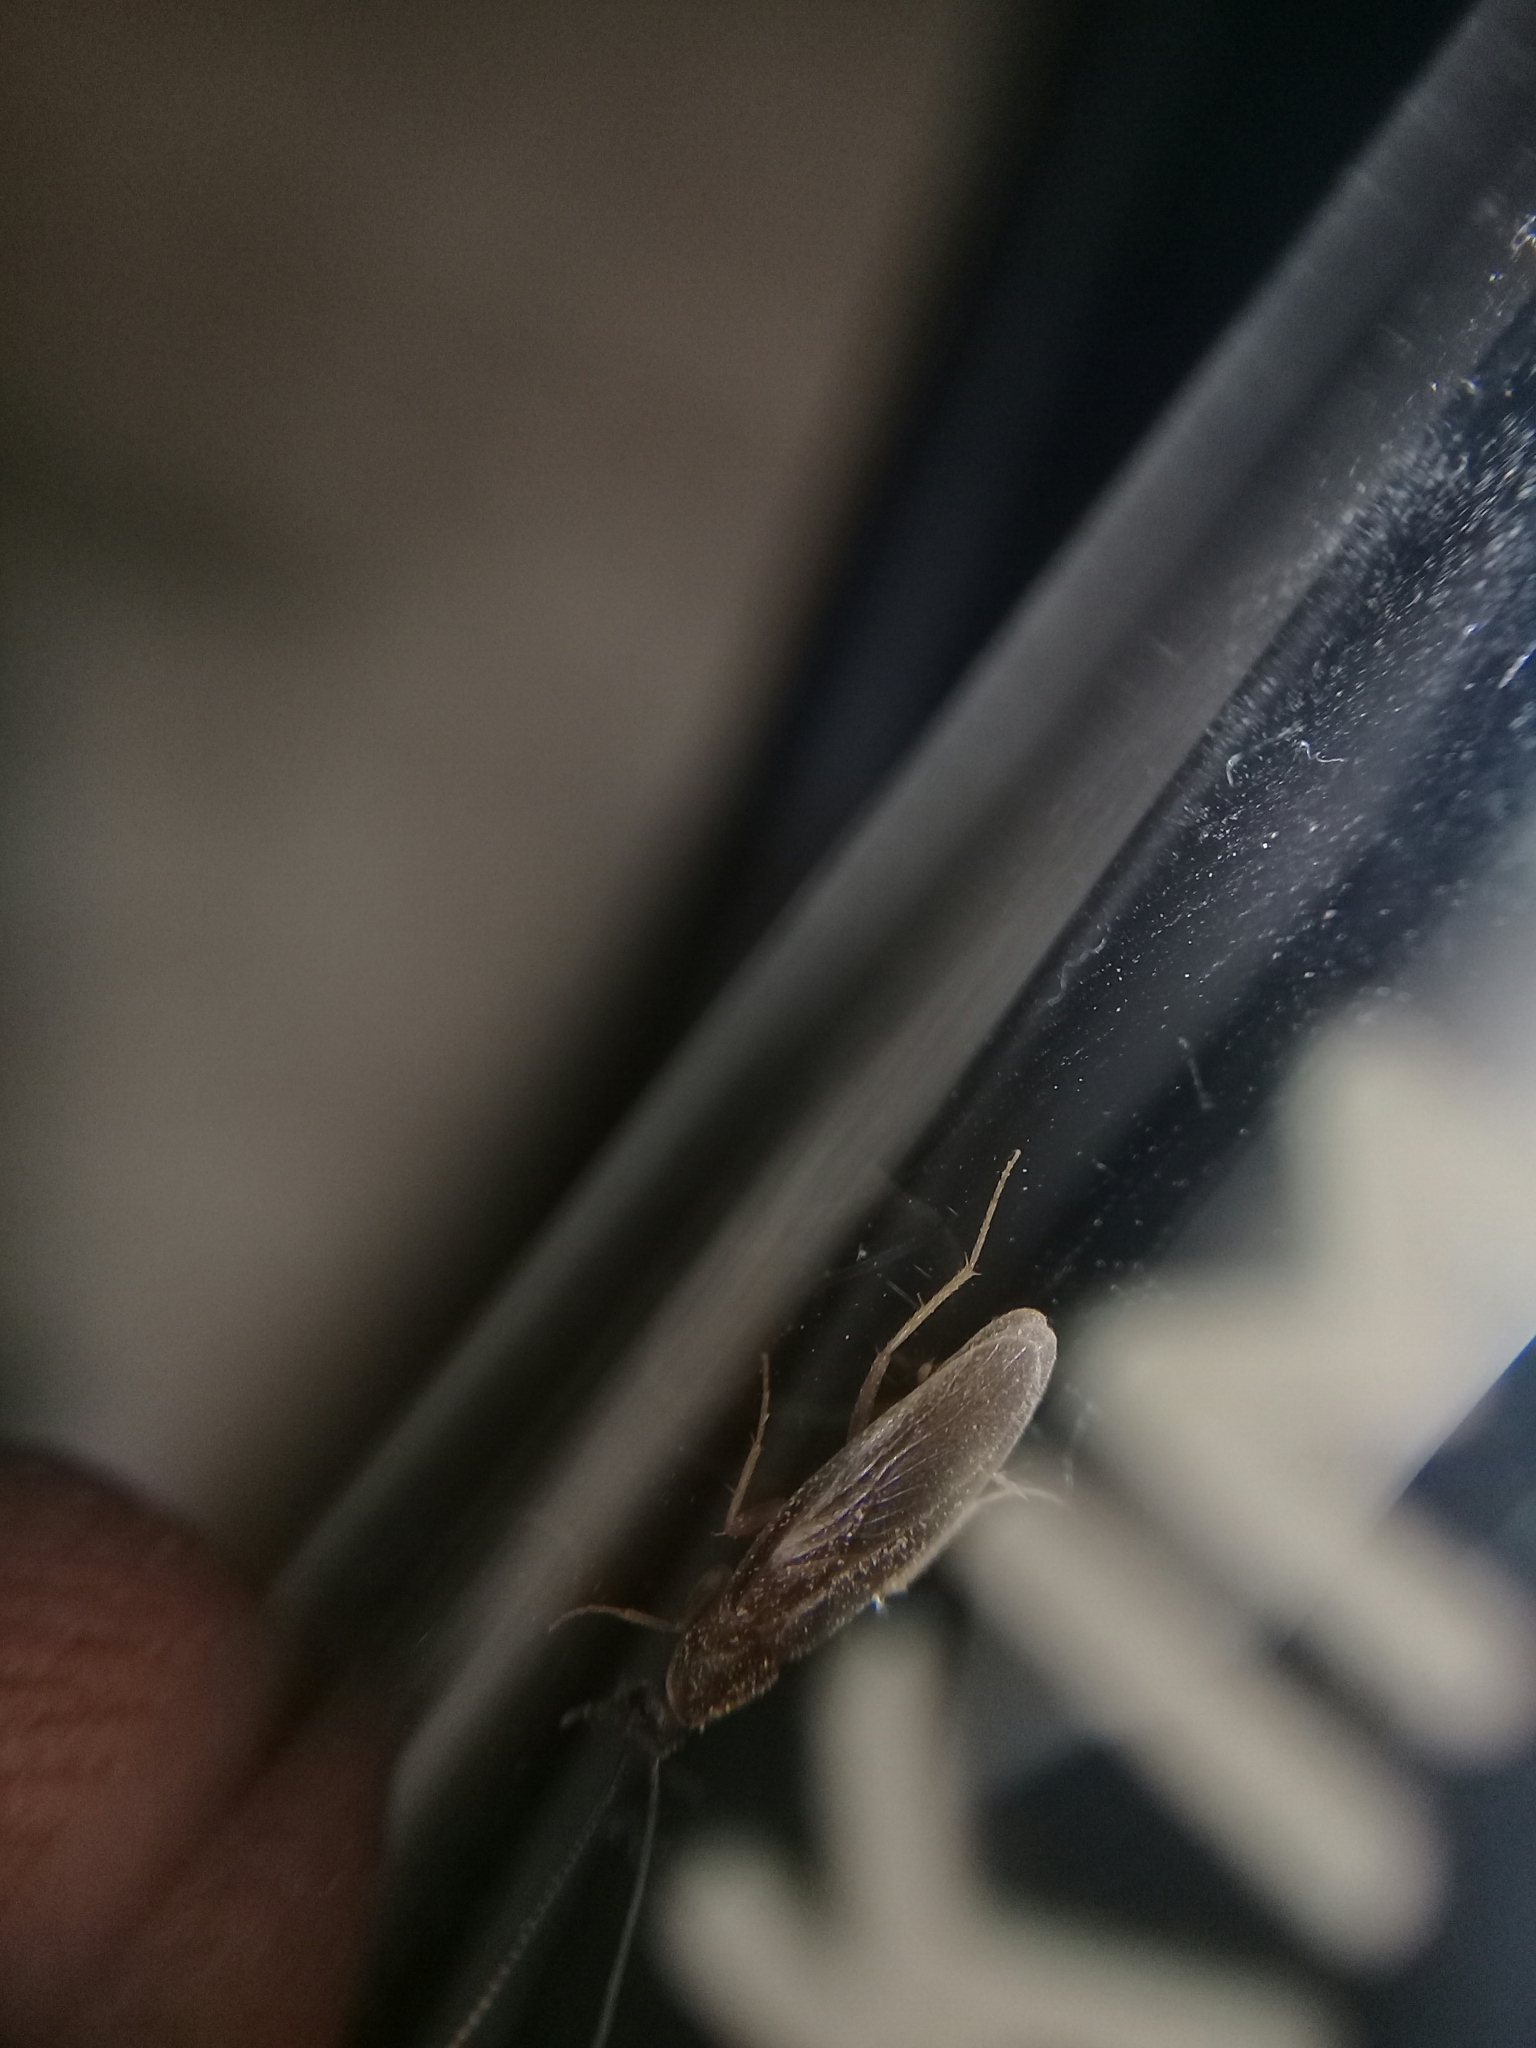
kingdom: Animalia
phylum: Arthropoda
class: Insecta
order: Blattodea
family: Corydiidae
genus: Compsodes
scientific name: Compsodes schwarzi
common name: Schwarz's hooded cockroach
